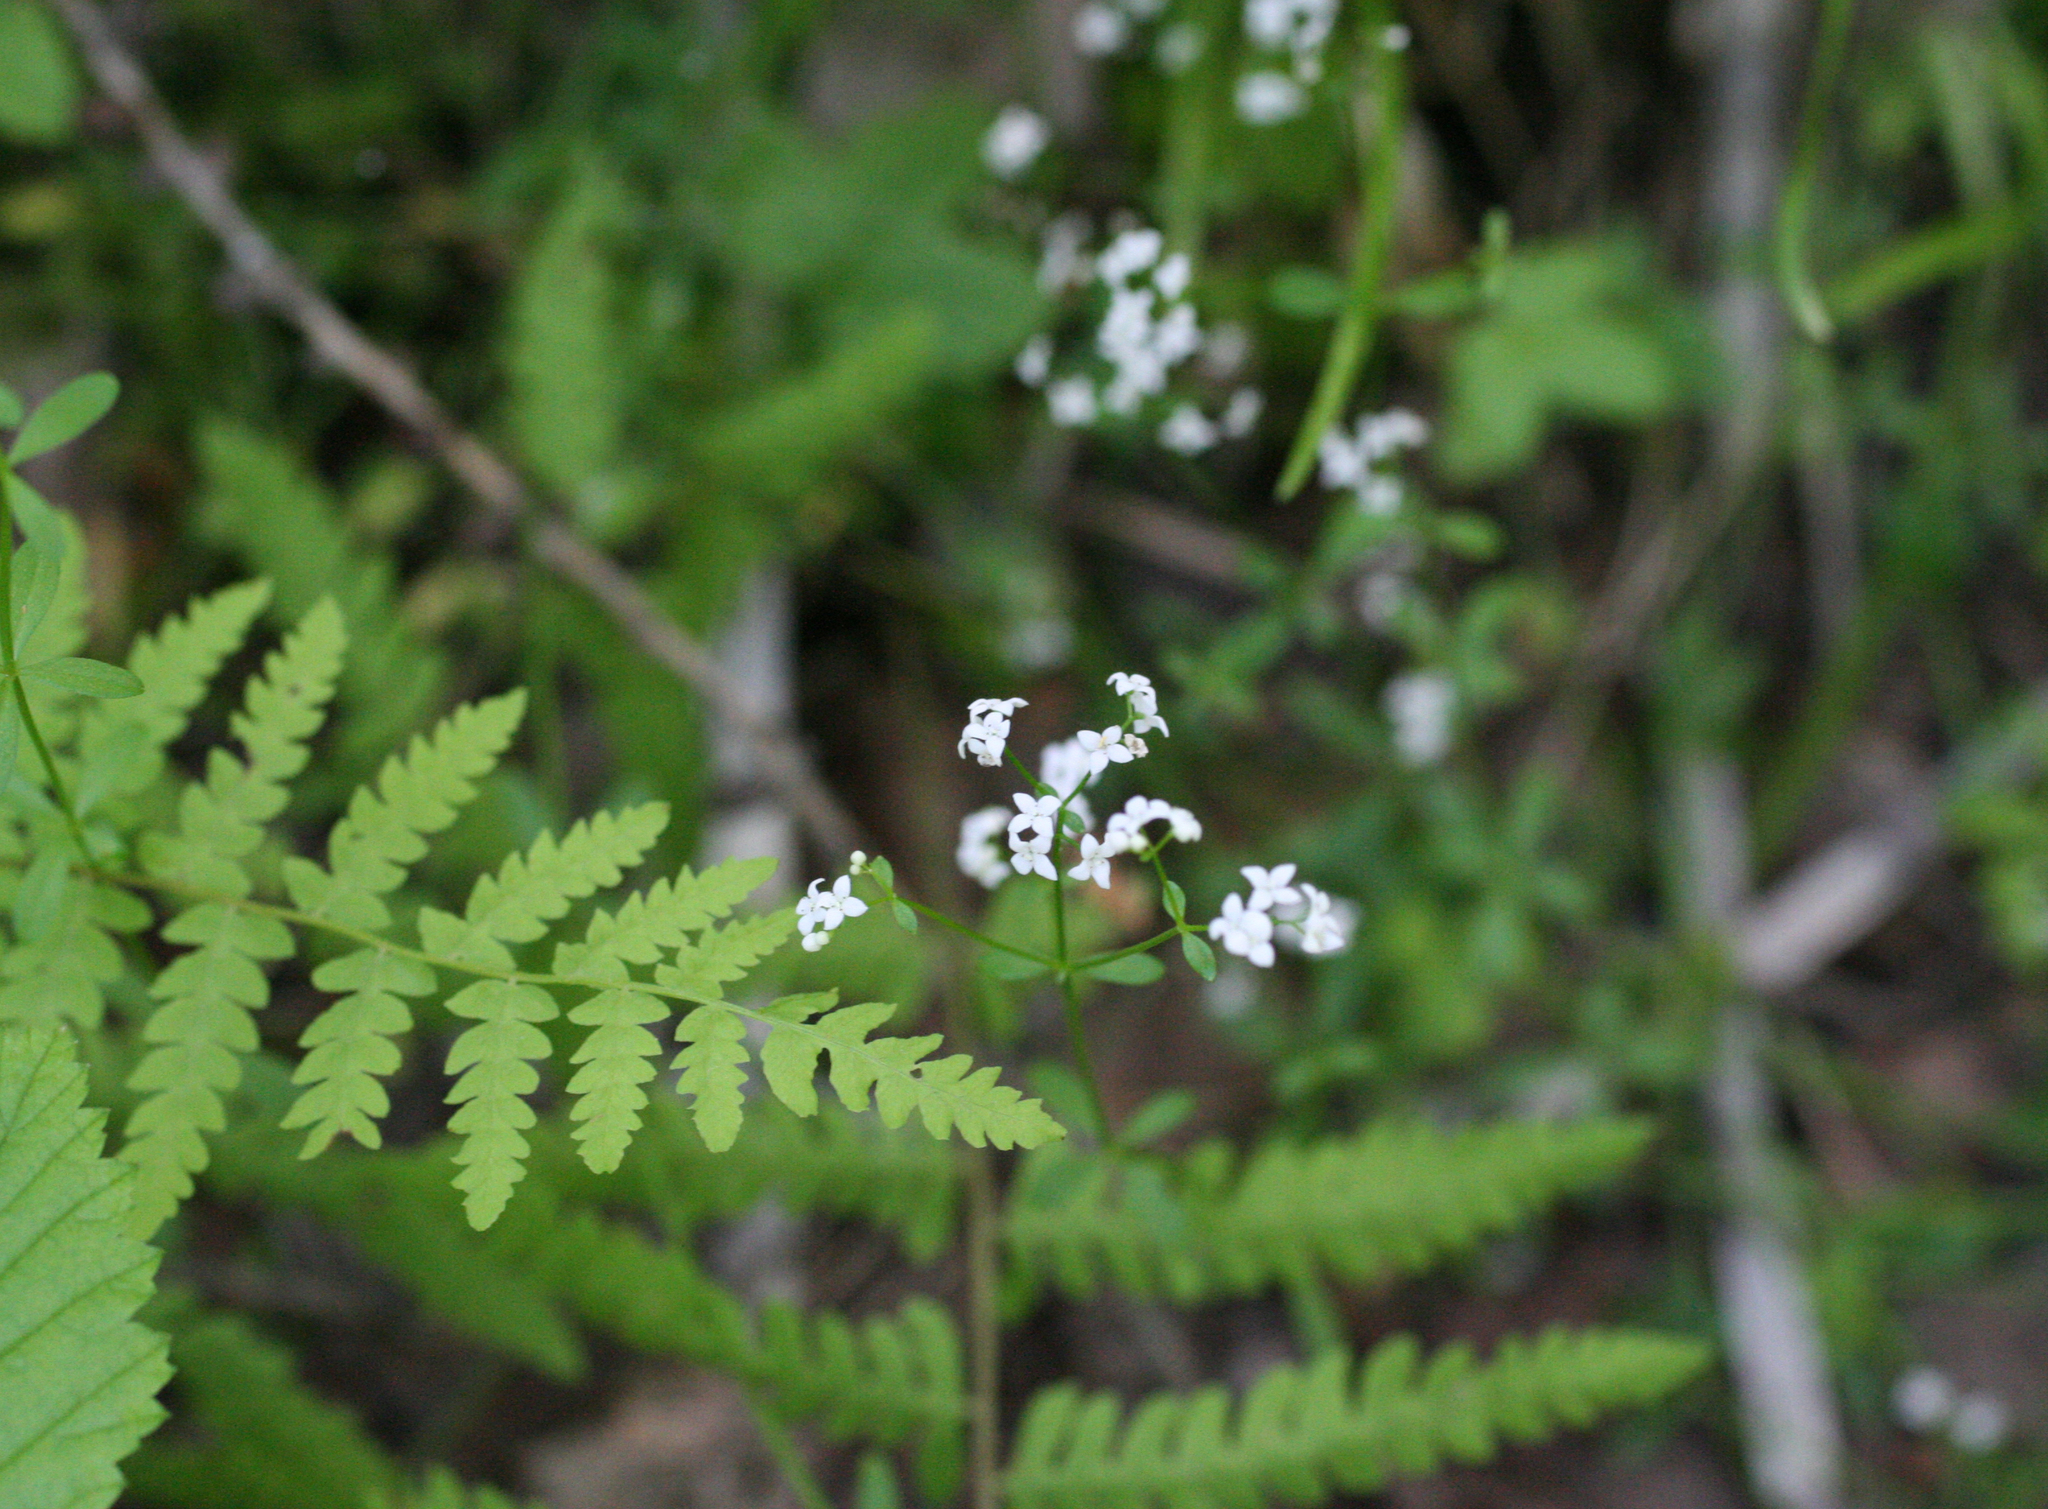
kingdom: Plantae
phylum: Tracheophyta
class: Magnoliopsida
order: Gentianales
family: Rubiaceae
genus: Galium
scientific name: Galium palustre
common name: Common marsh-bedstraw
